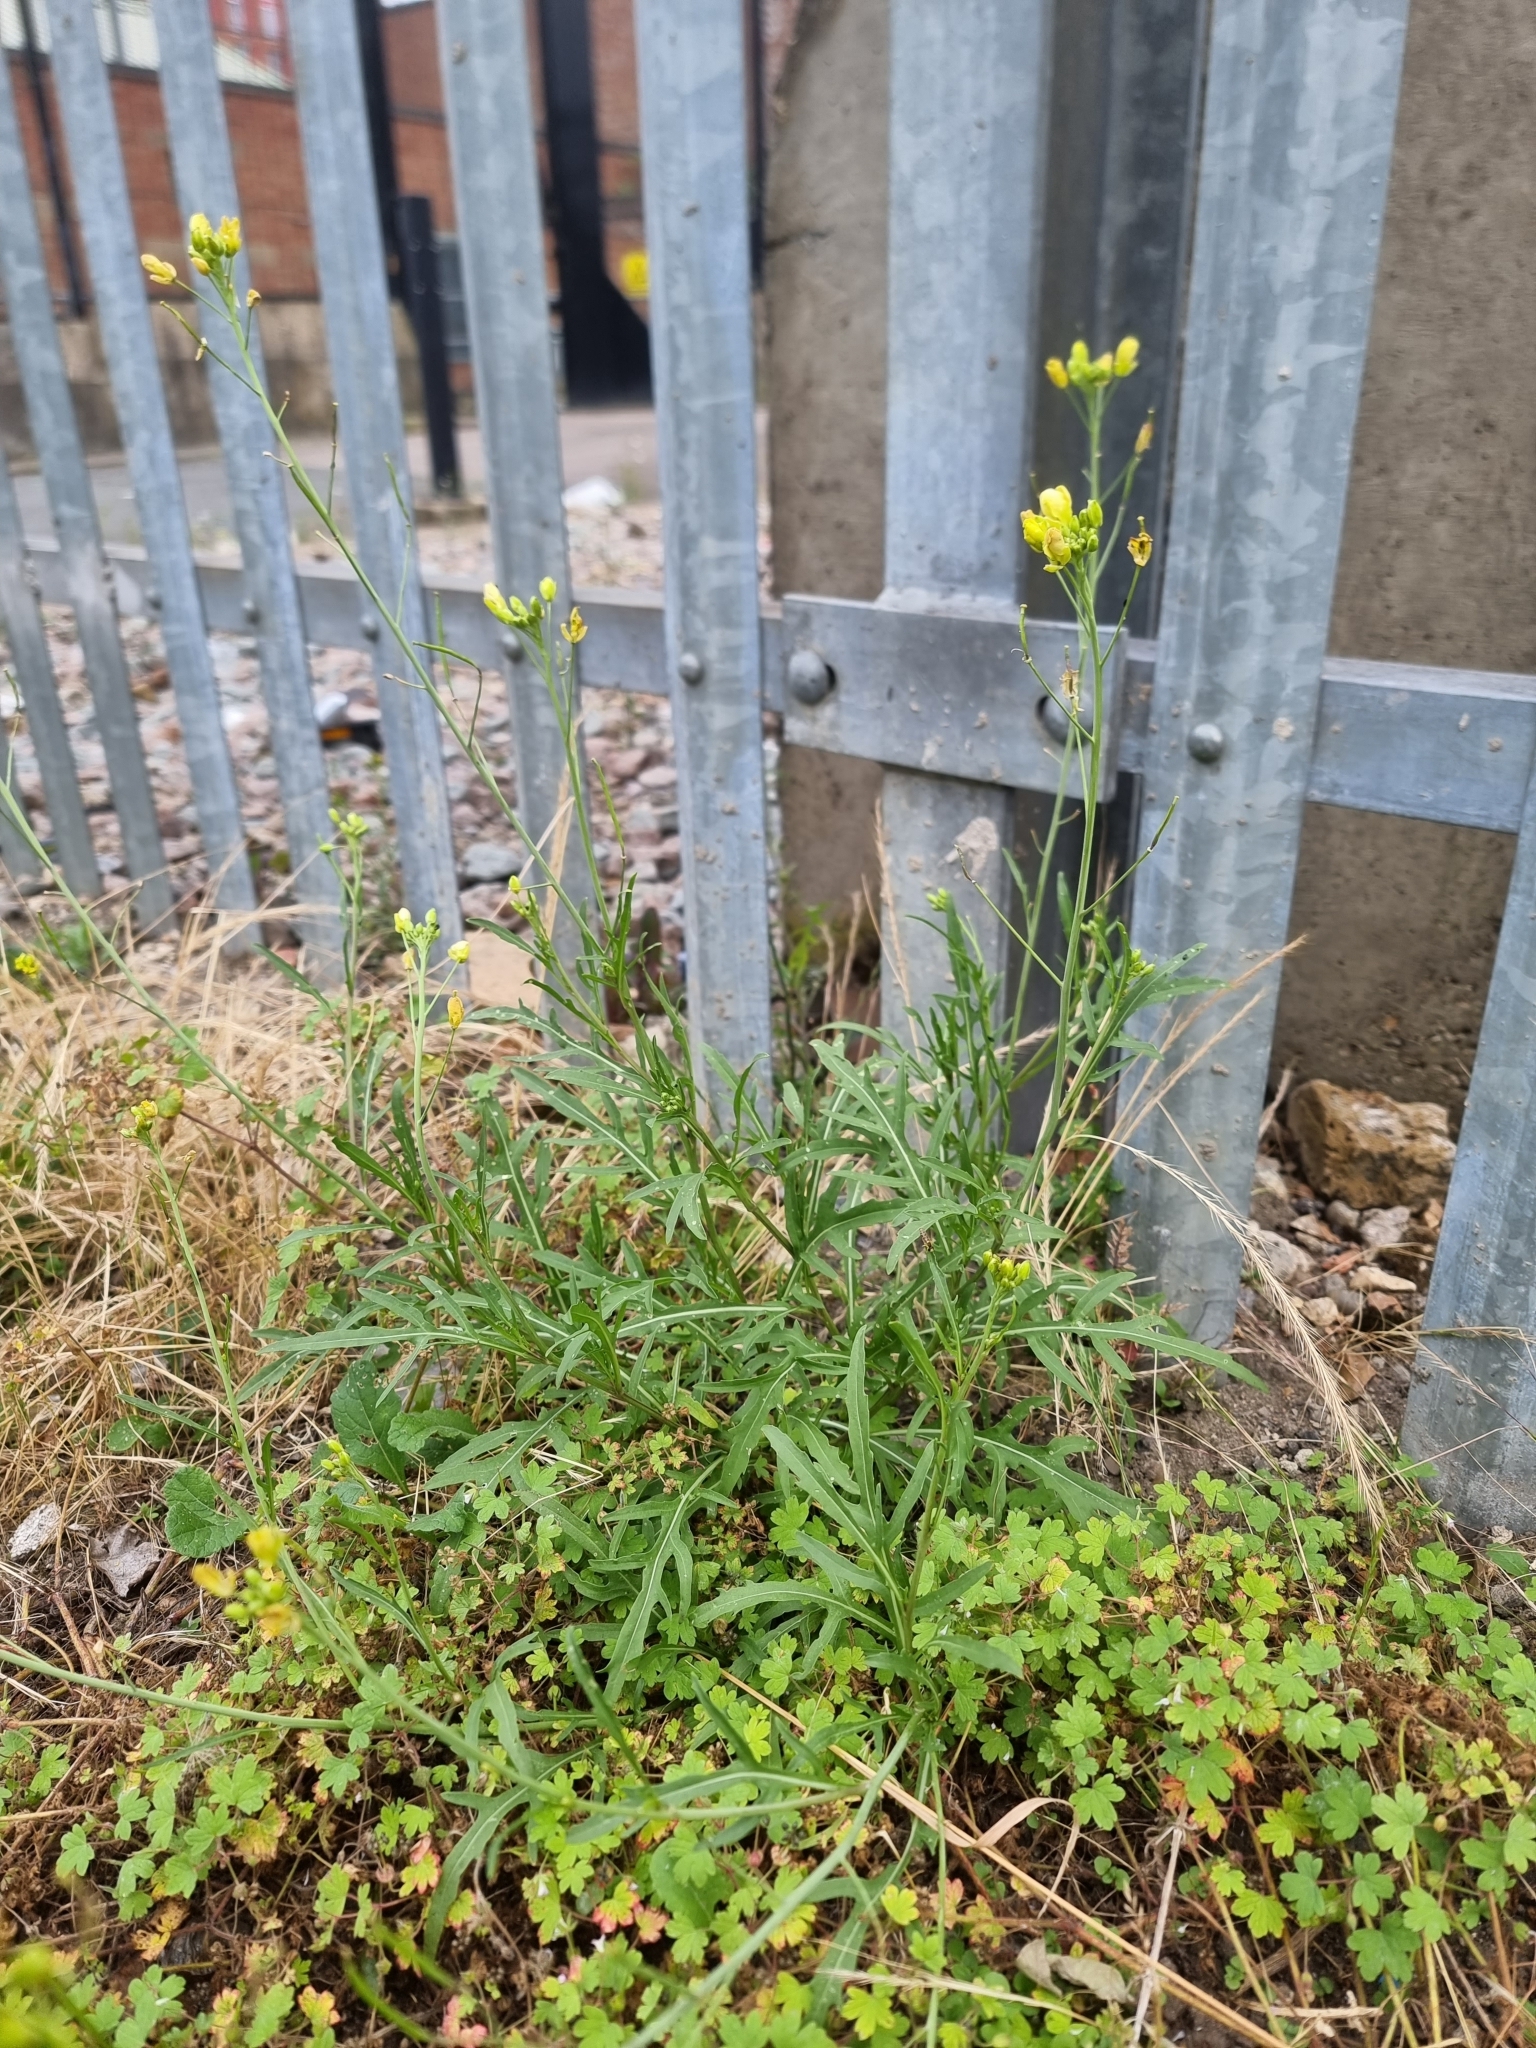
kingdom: Plantae
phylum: Tracheophyta
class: Magnoliopsida
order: Brassicales
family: Brassicaceae
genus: Diplotaxis
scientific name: Diplotaxis tenuifolia
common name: Perennial wall-rocket
